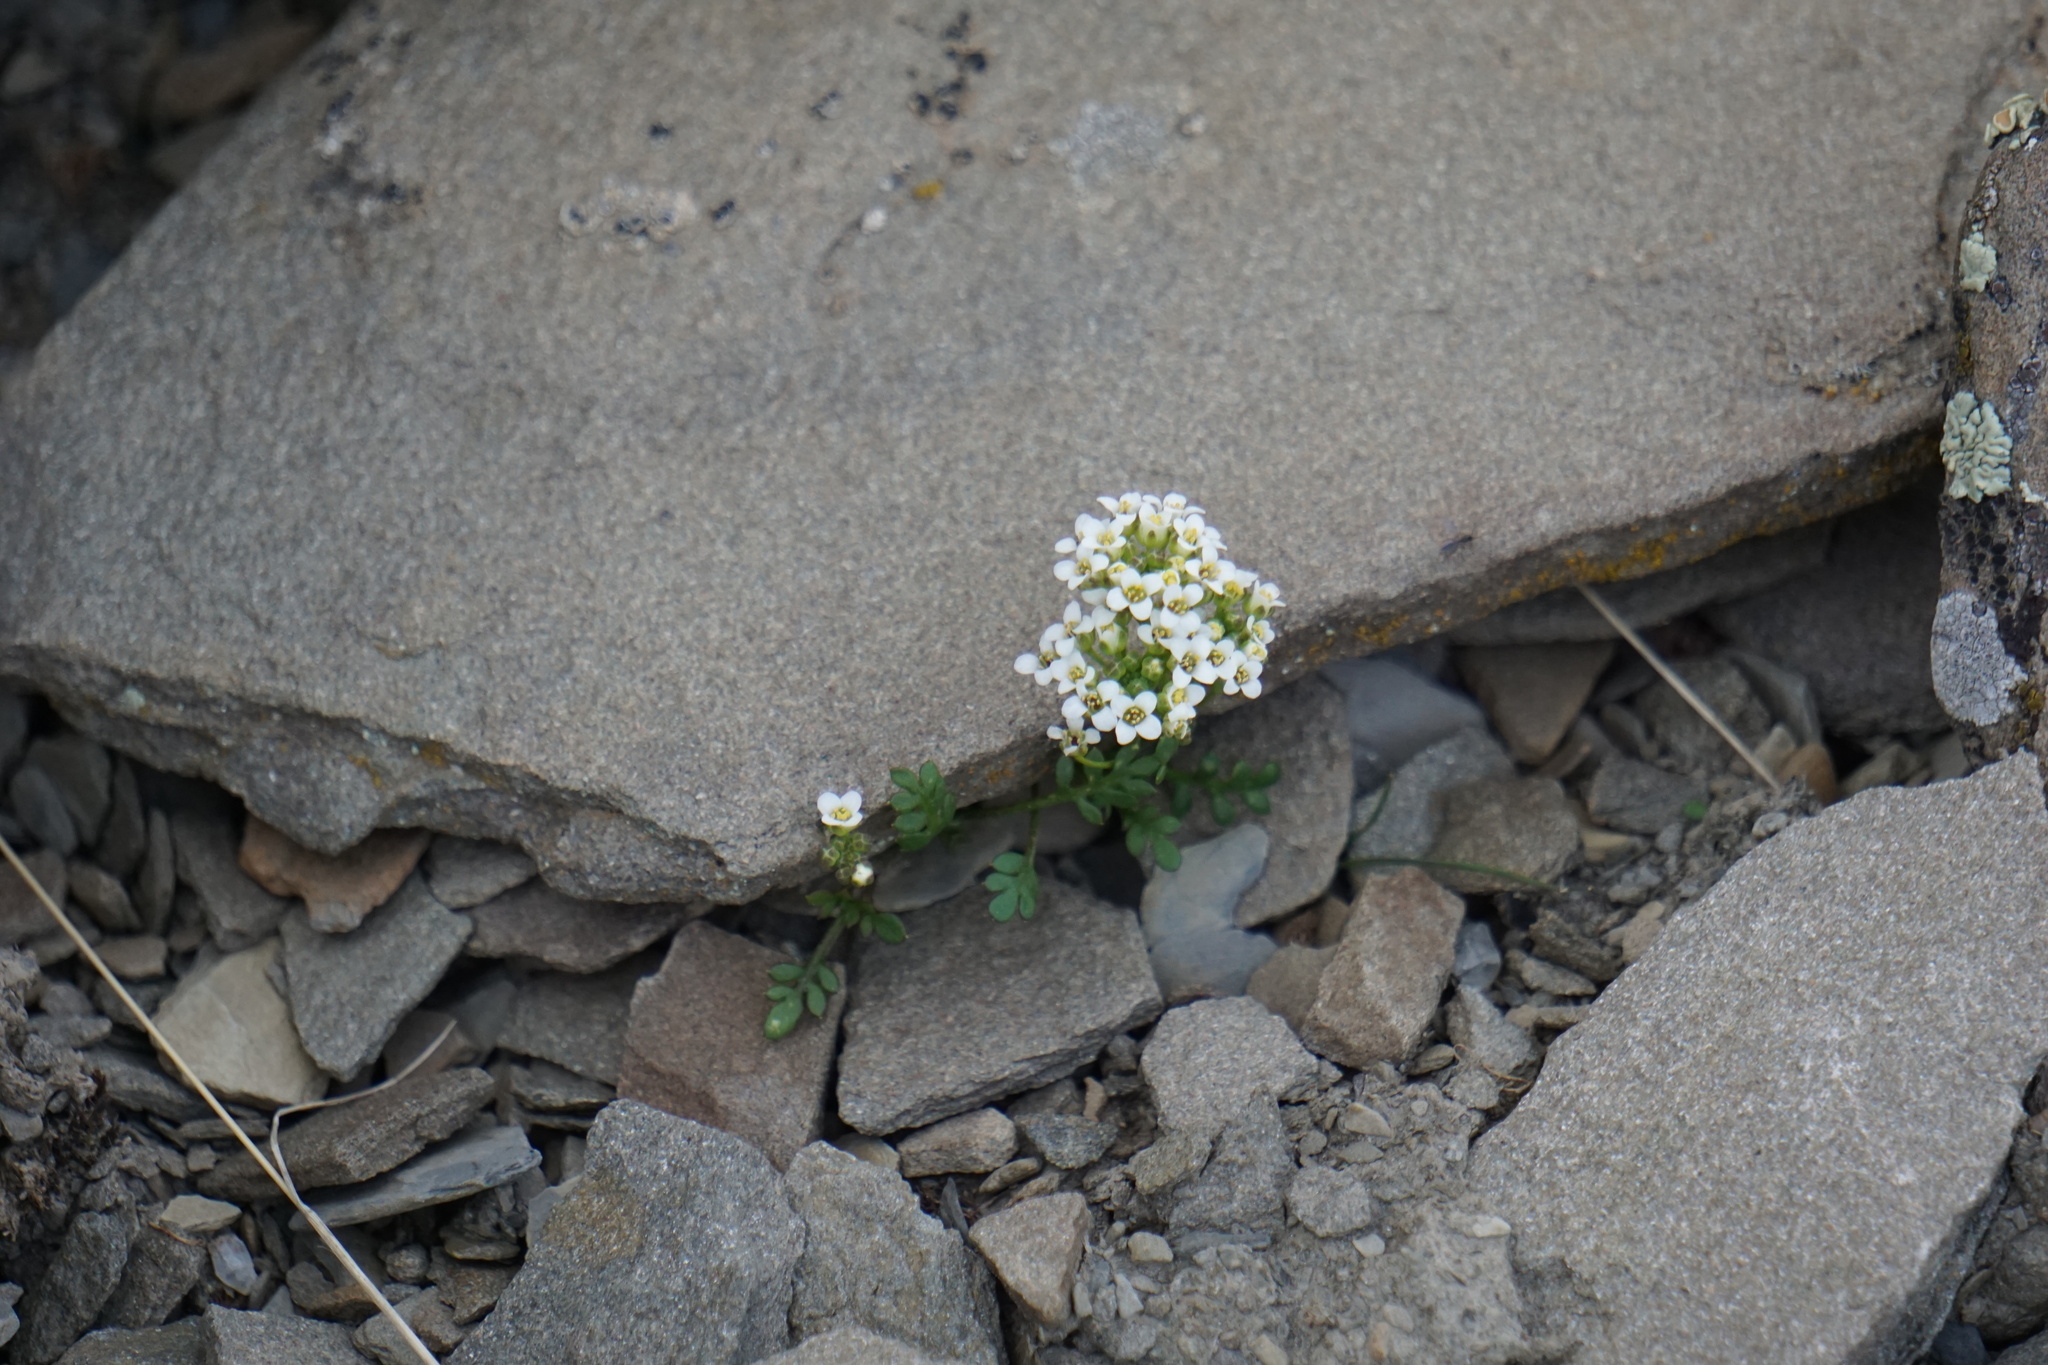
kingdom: Plantae
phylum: Tracheophyta
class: Magnoliopsida
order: Brassicales
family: Brassicaceae
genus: Hornungia
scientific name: Hornungia alpina
